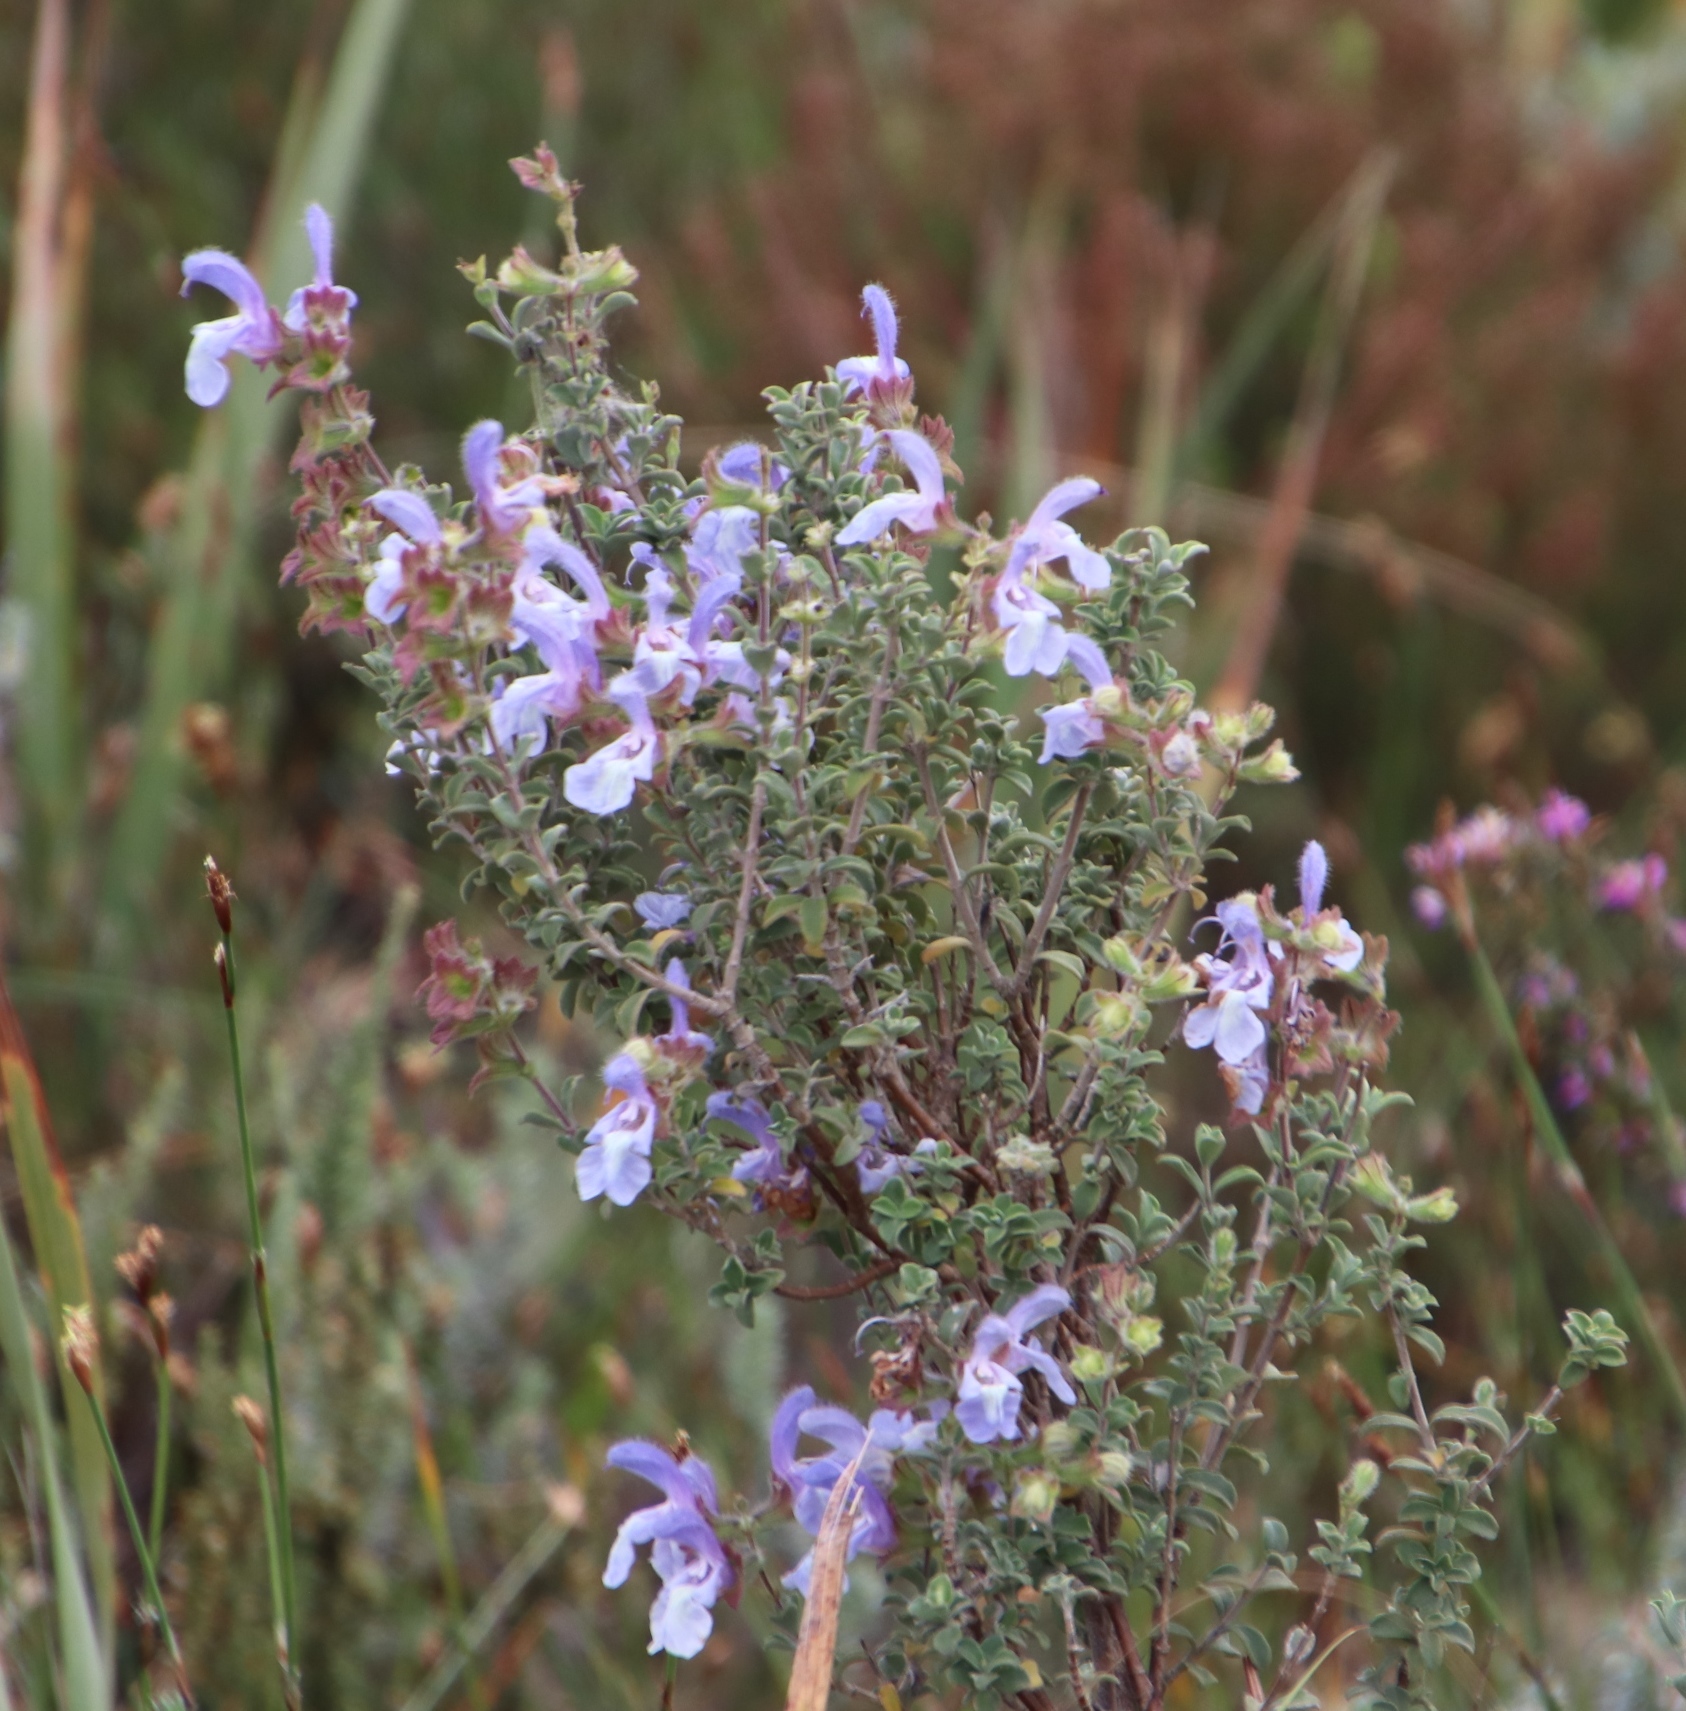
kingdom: Plantae
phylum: Tracheophyta
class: Magnoliopsida
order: Lamiales
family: Lamiaceae
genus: Salvia
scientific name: Salvia africana
